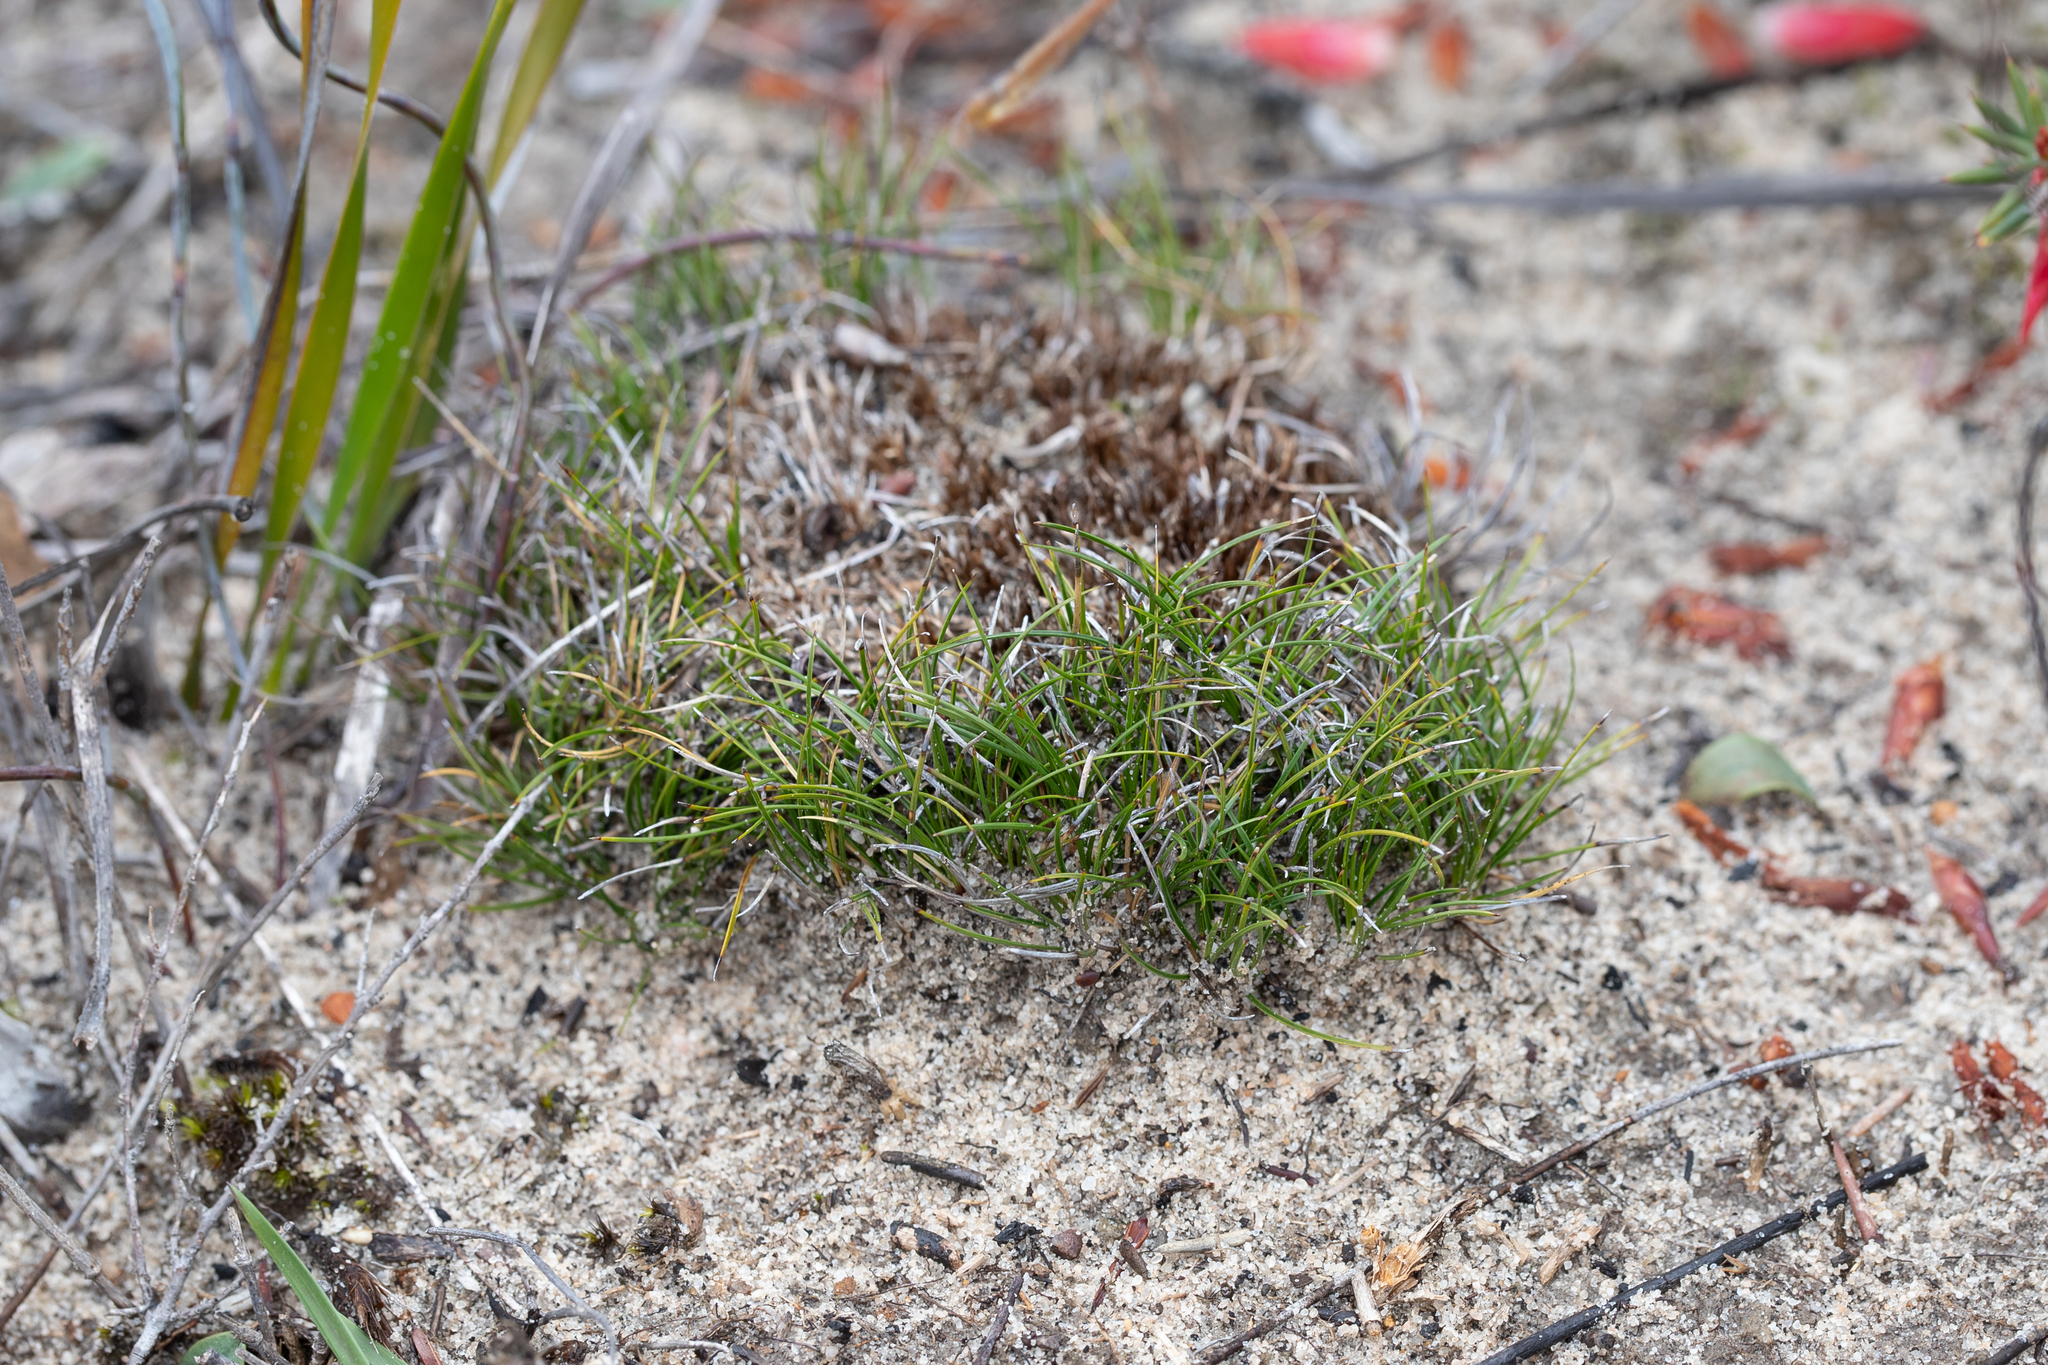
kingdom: Plantae
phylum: Tracheophyta
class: Liliopsida
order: Poales
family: Cyperaceae
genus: Schoenus
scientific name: Schoenus breviculmis
